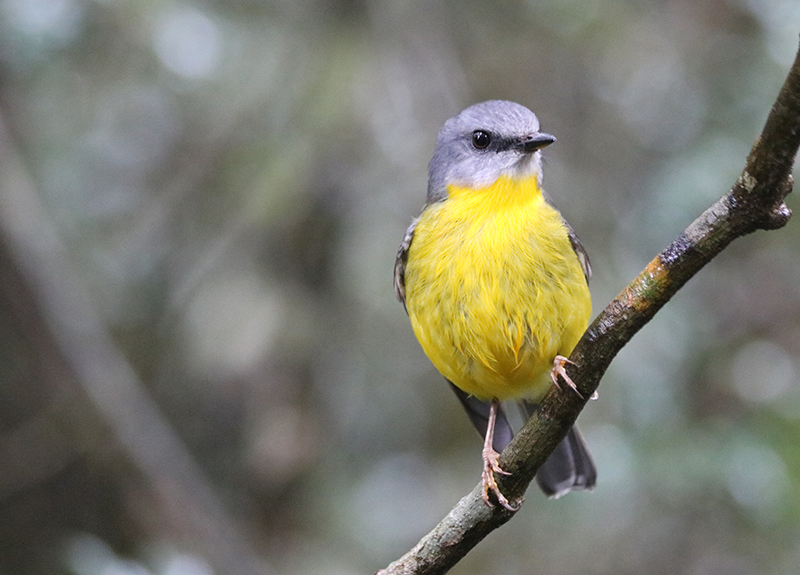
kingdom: Animalia
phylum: Chordata
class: Aves
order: Passeriformes
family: Petroicidae
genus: Eopsaltria
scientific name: Eopsaltria australis
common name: Eastern yellow robin
